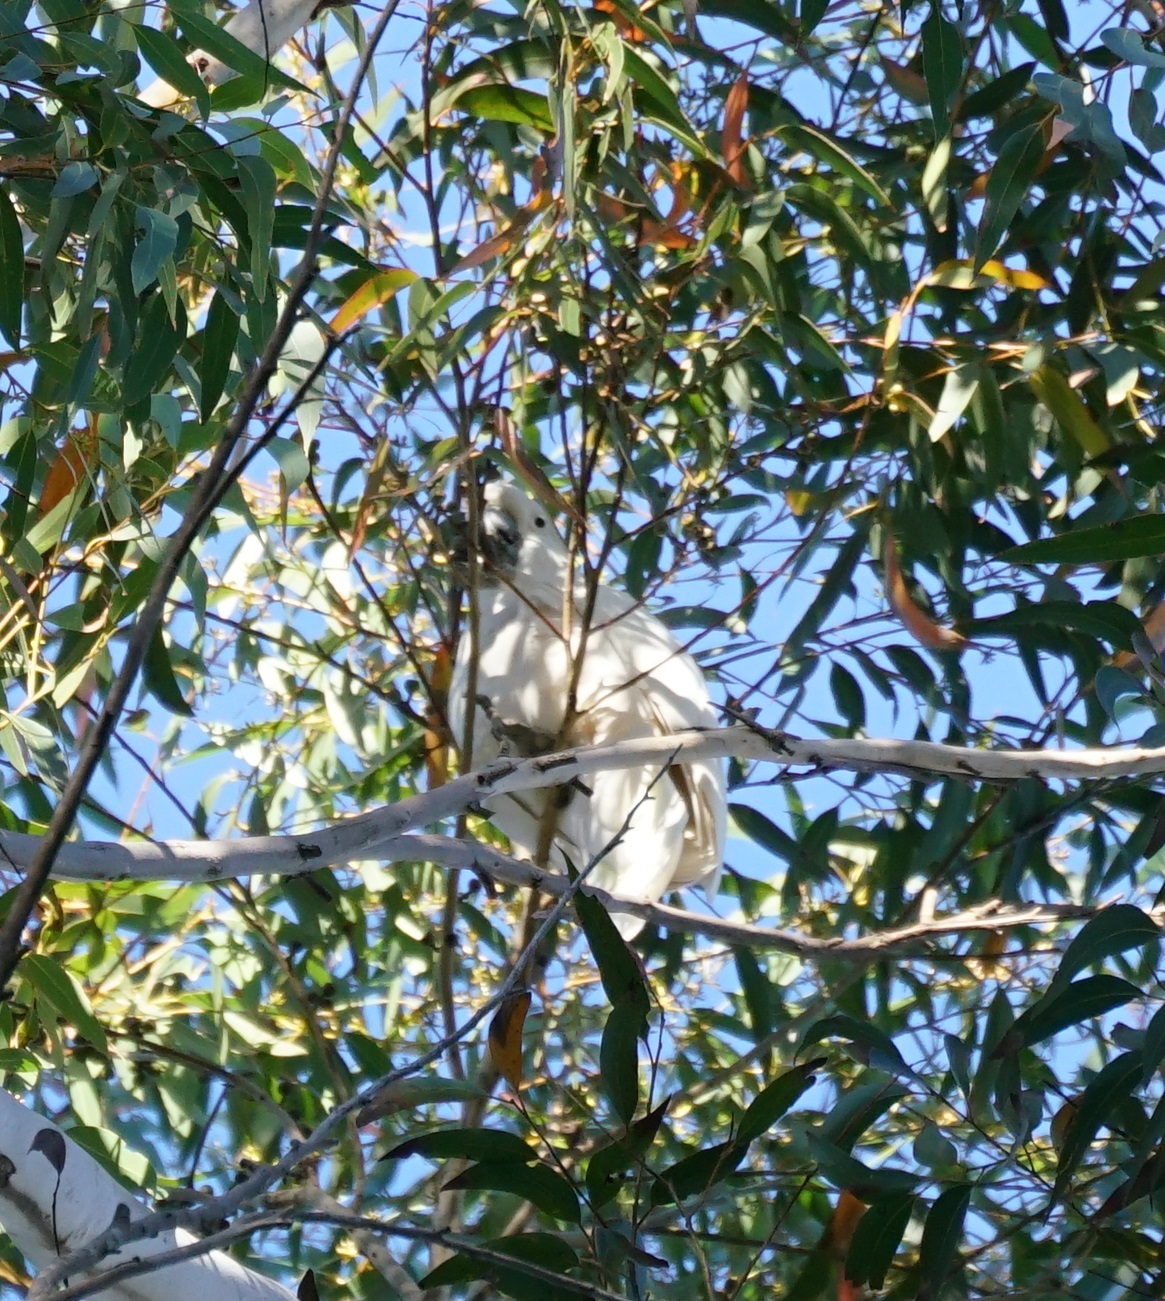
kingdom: Animalia
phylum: Chordata
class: Aves
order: Psittaciformes
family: Psittacidae
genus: Cacatua
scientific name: Cacatua galerita
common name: Sulphur-crested cockatoo
